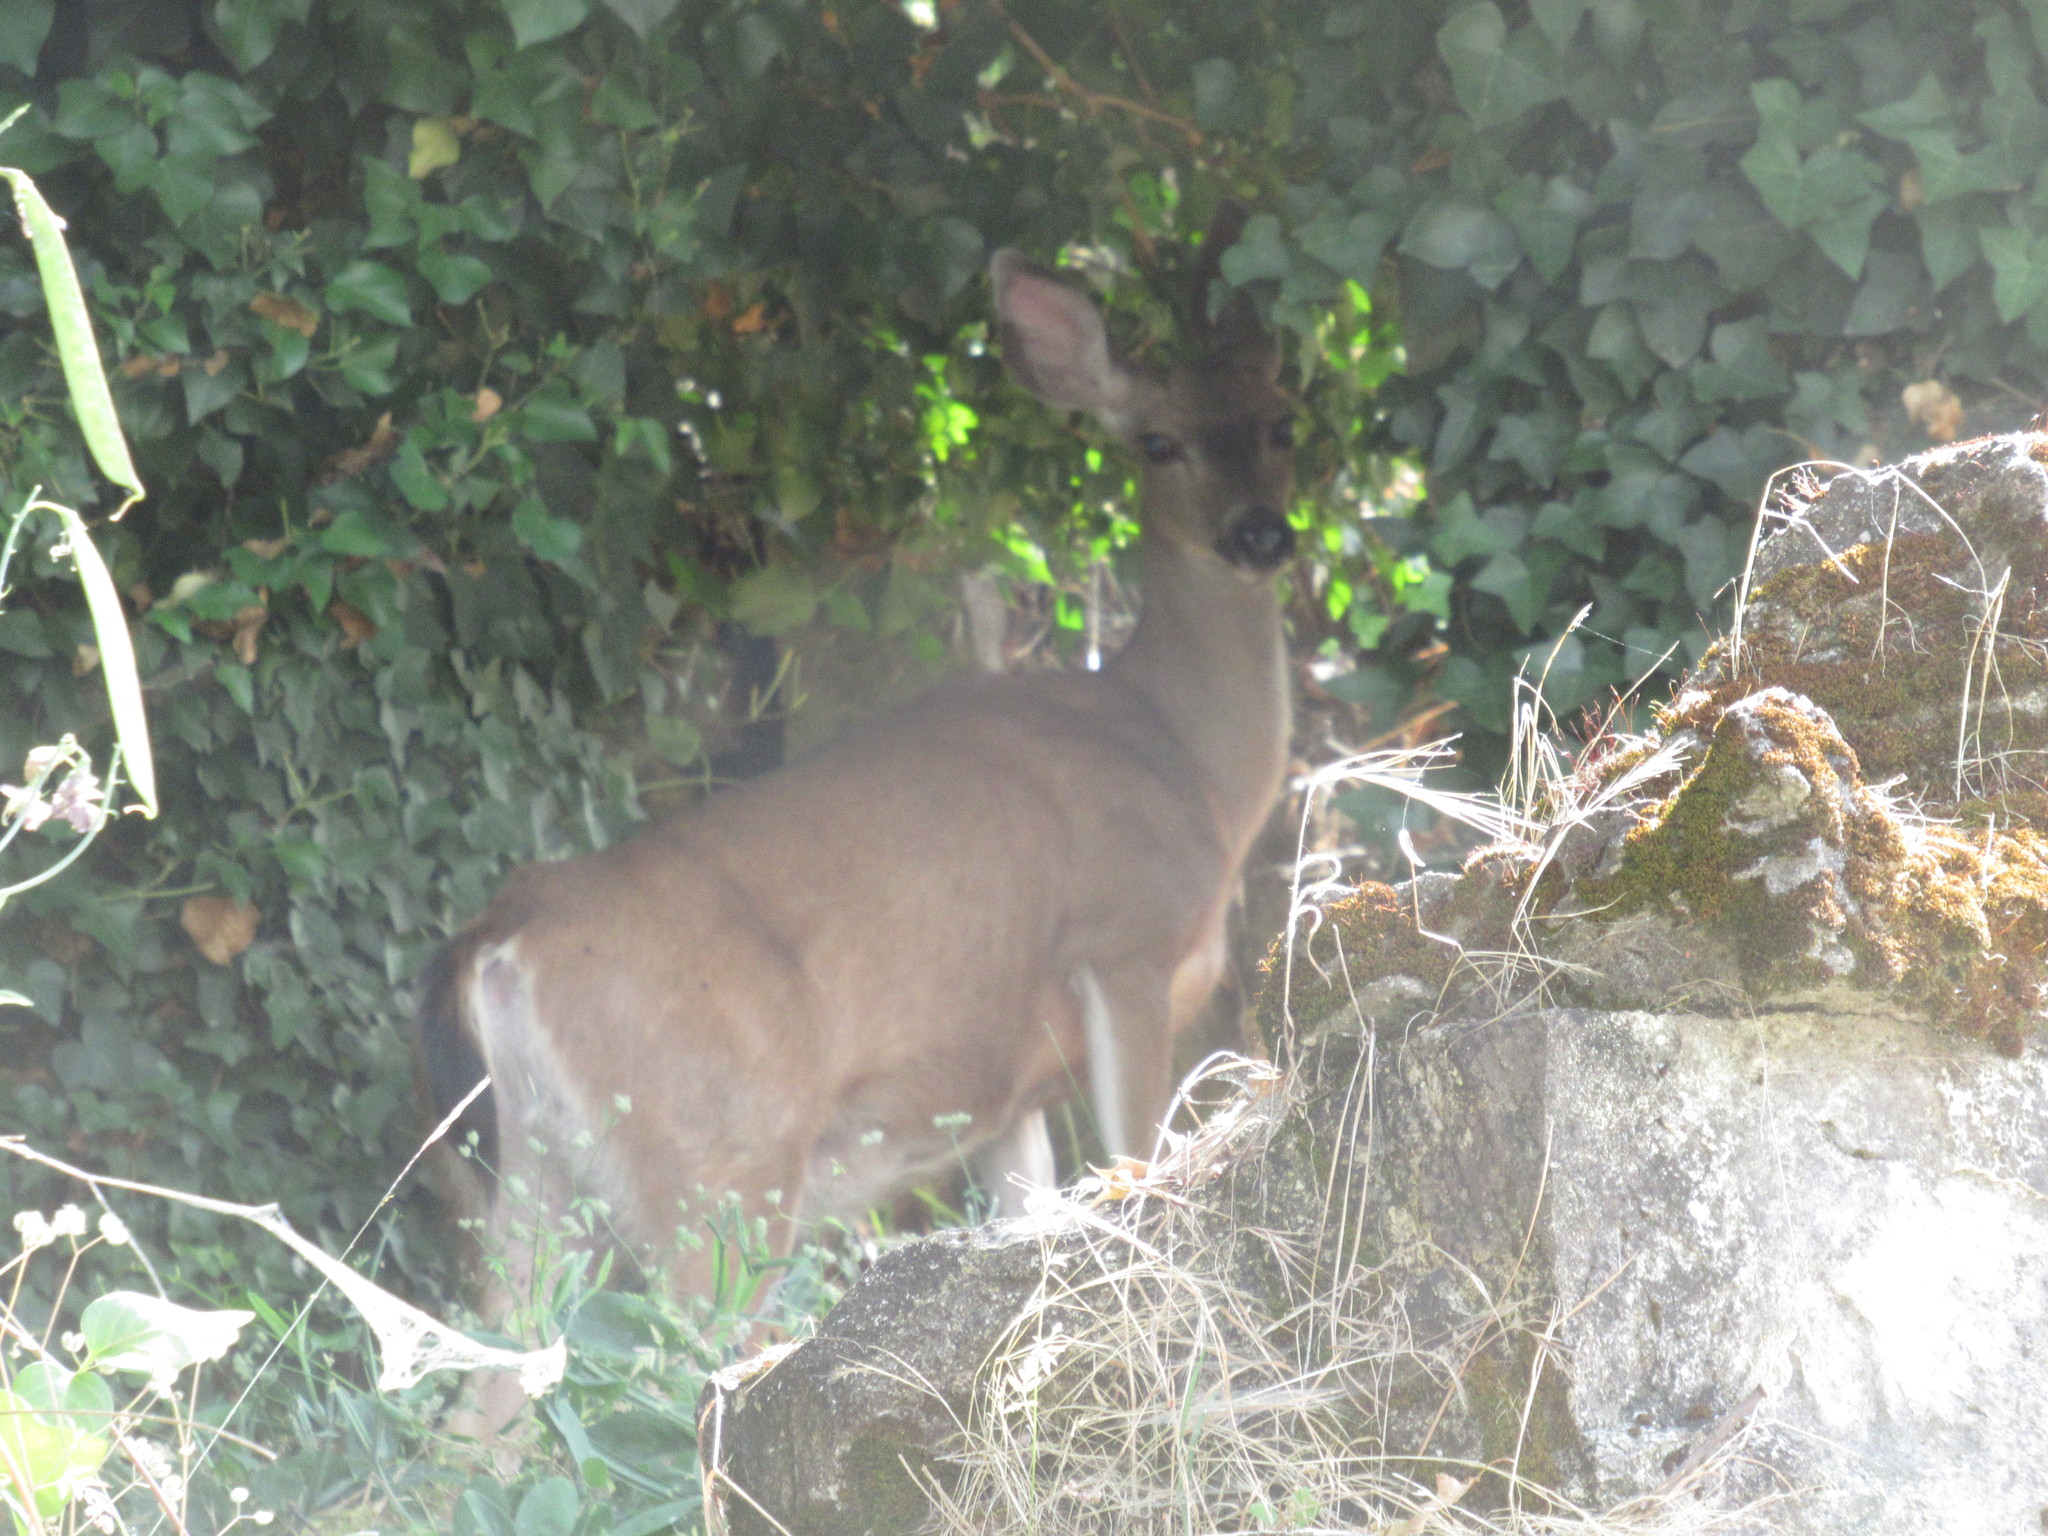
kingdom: Animalia
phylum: Chordata
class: Mammalia
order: Artiodactyla
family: Cervidae
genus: Odocoileus
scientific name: Odocoileus hemionus
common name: Mule deer
